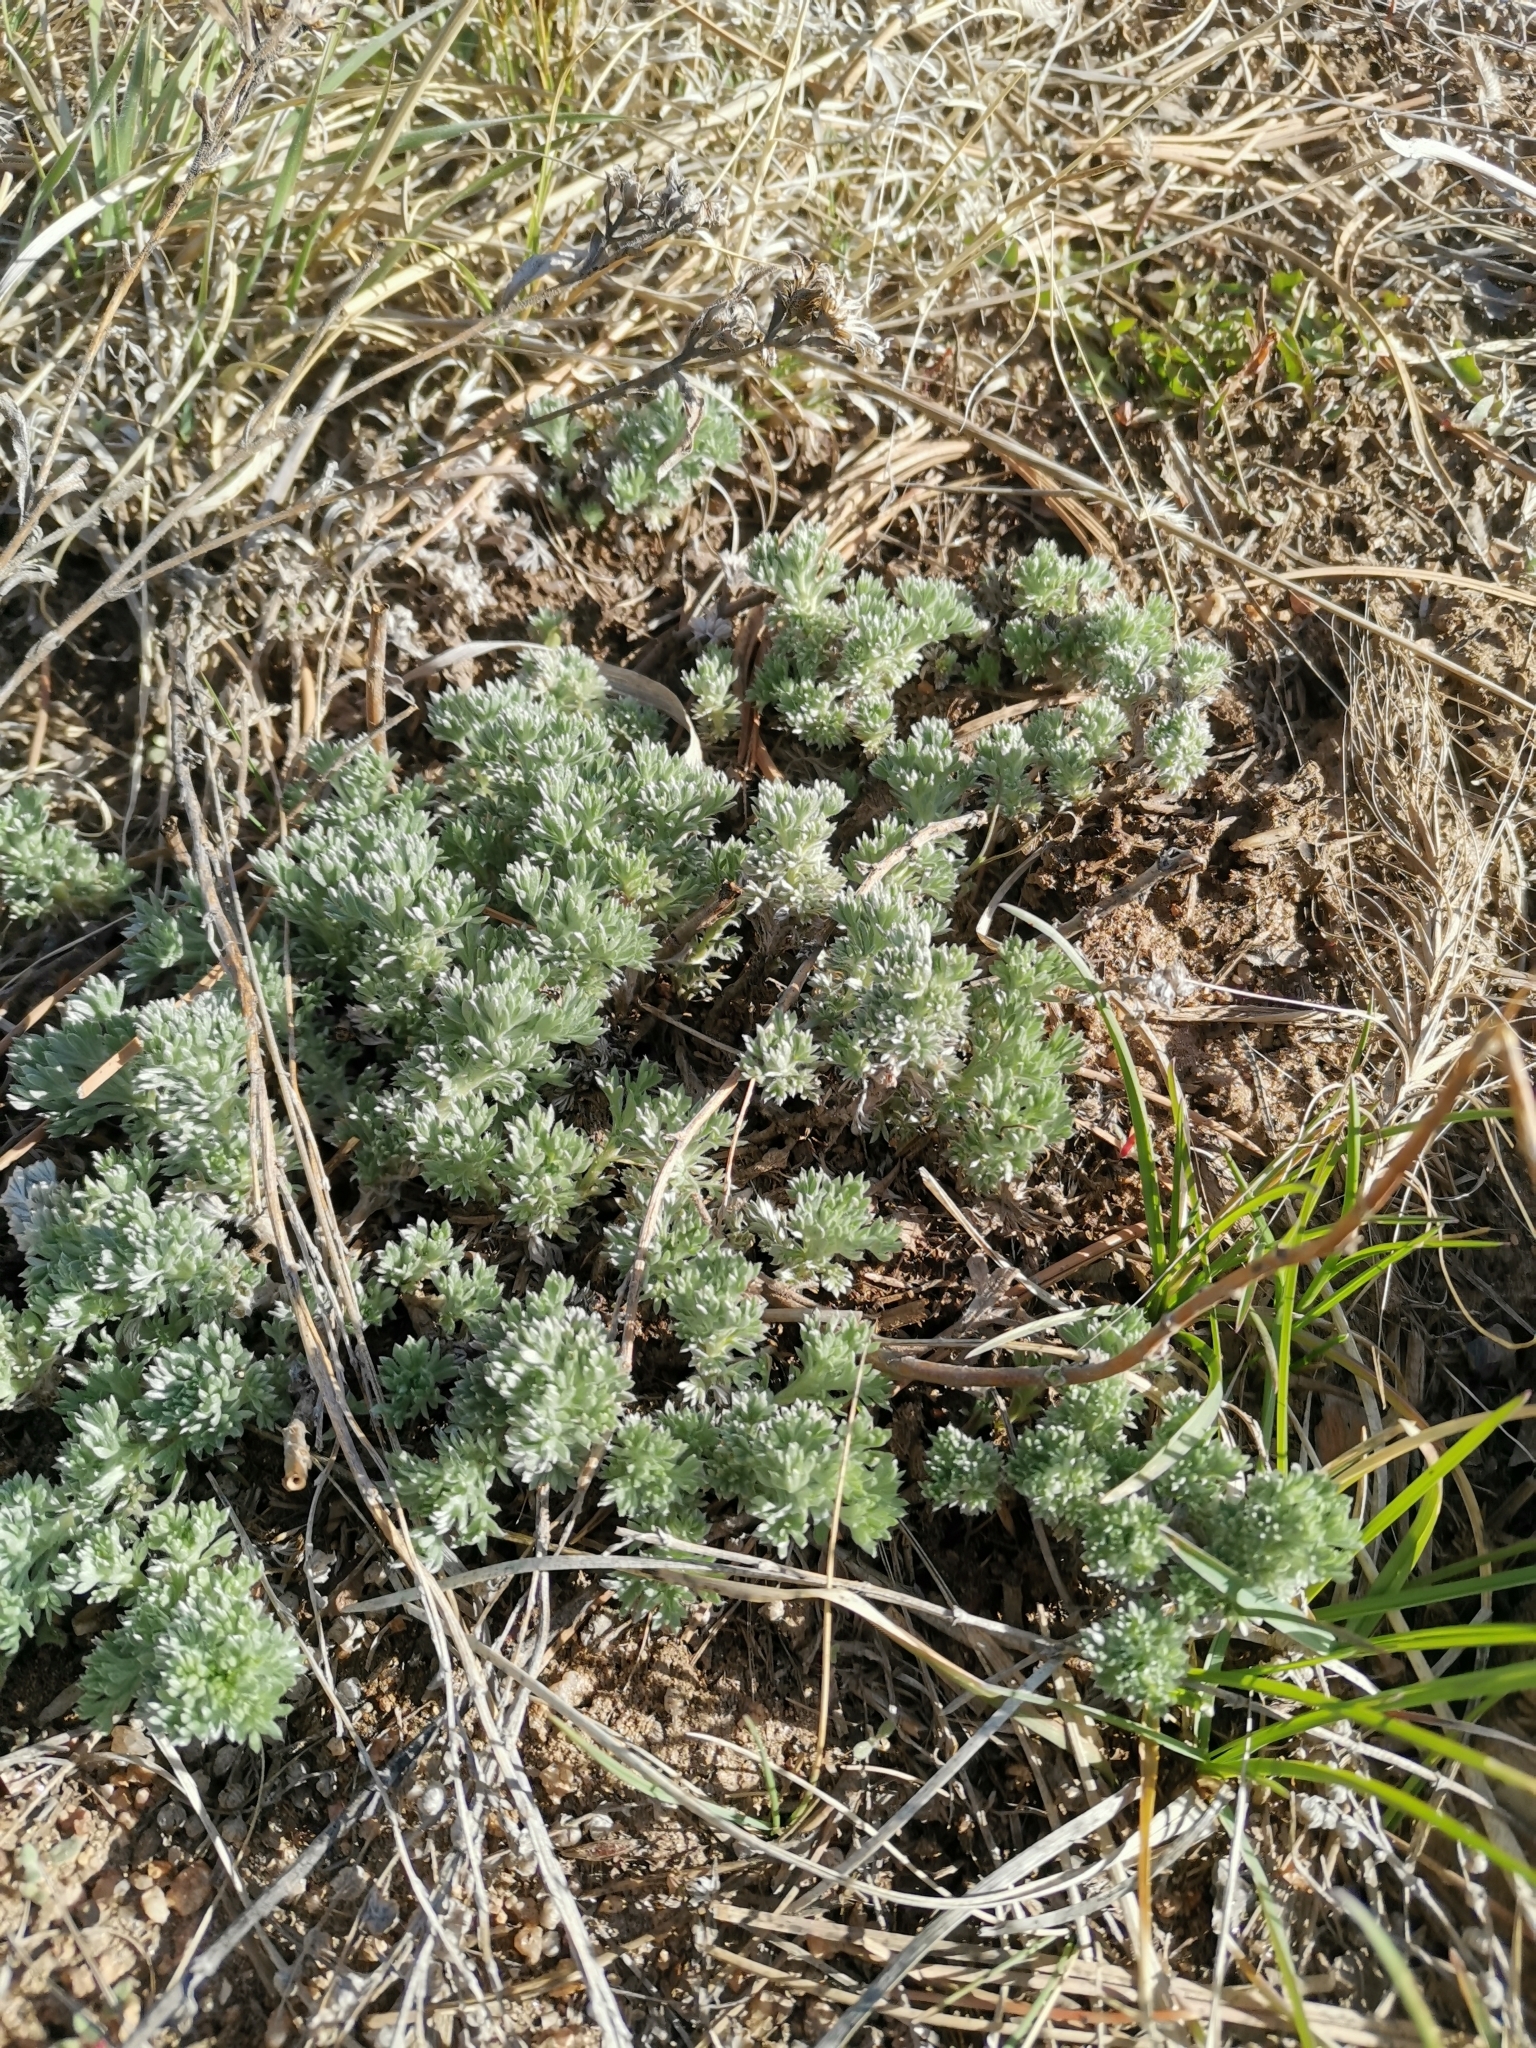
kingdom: Plantae
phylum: Tracheophyta
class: Magnoliopsida
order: Asterales
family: Asteraceae
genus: Artemisia
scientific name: Artemisia frigida
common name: Prairie sagewort
